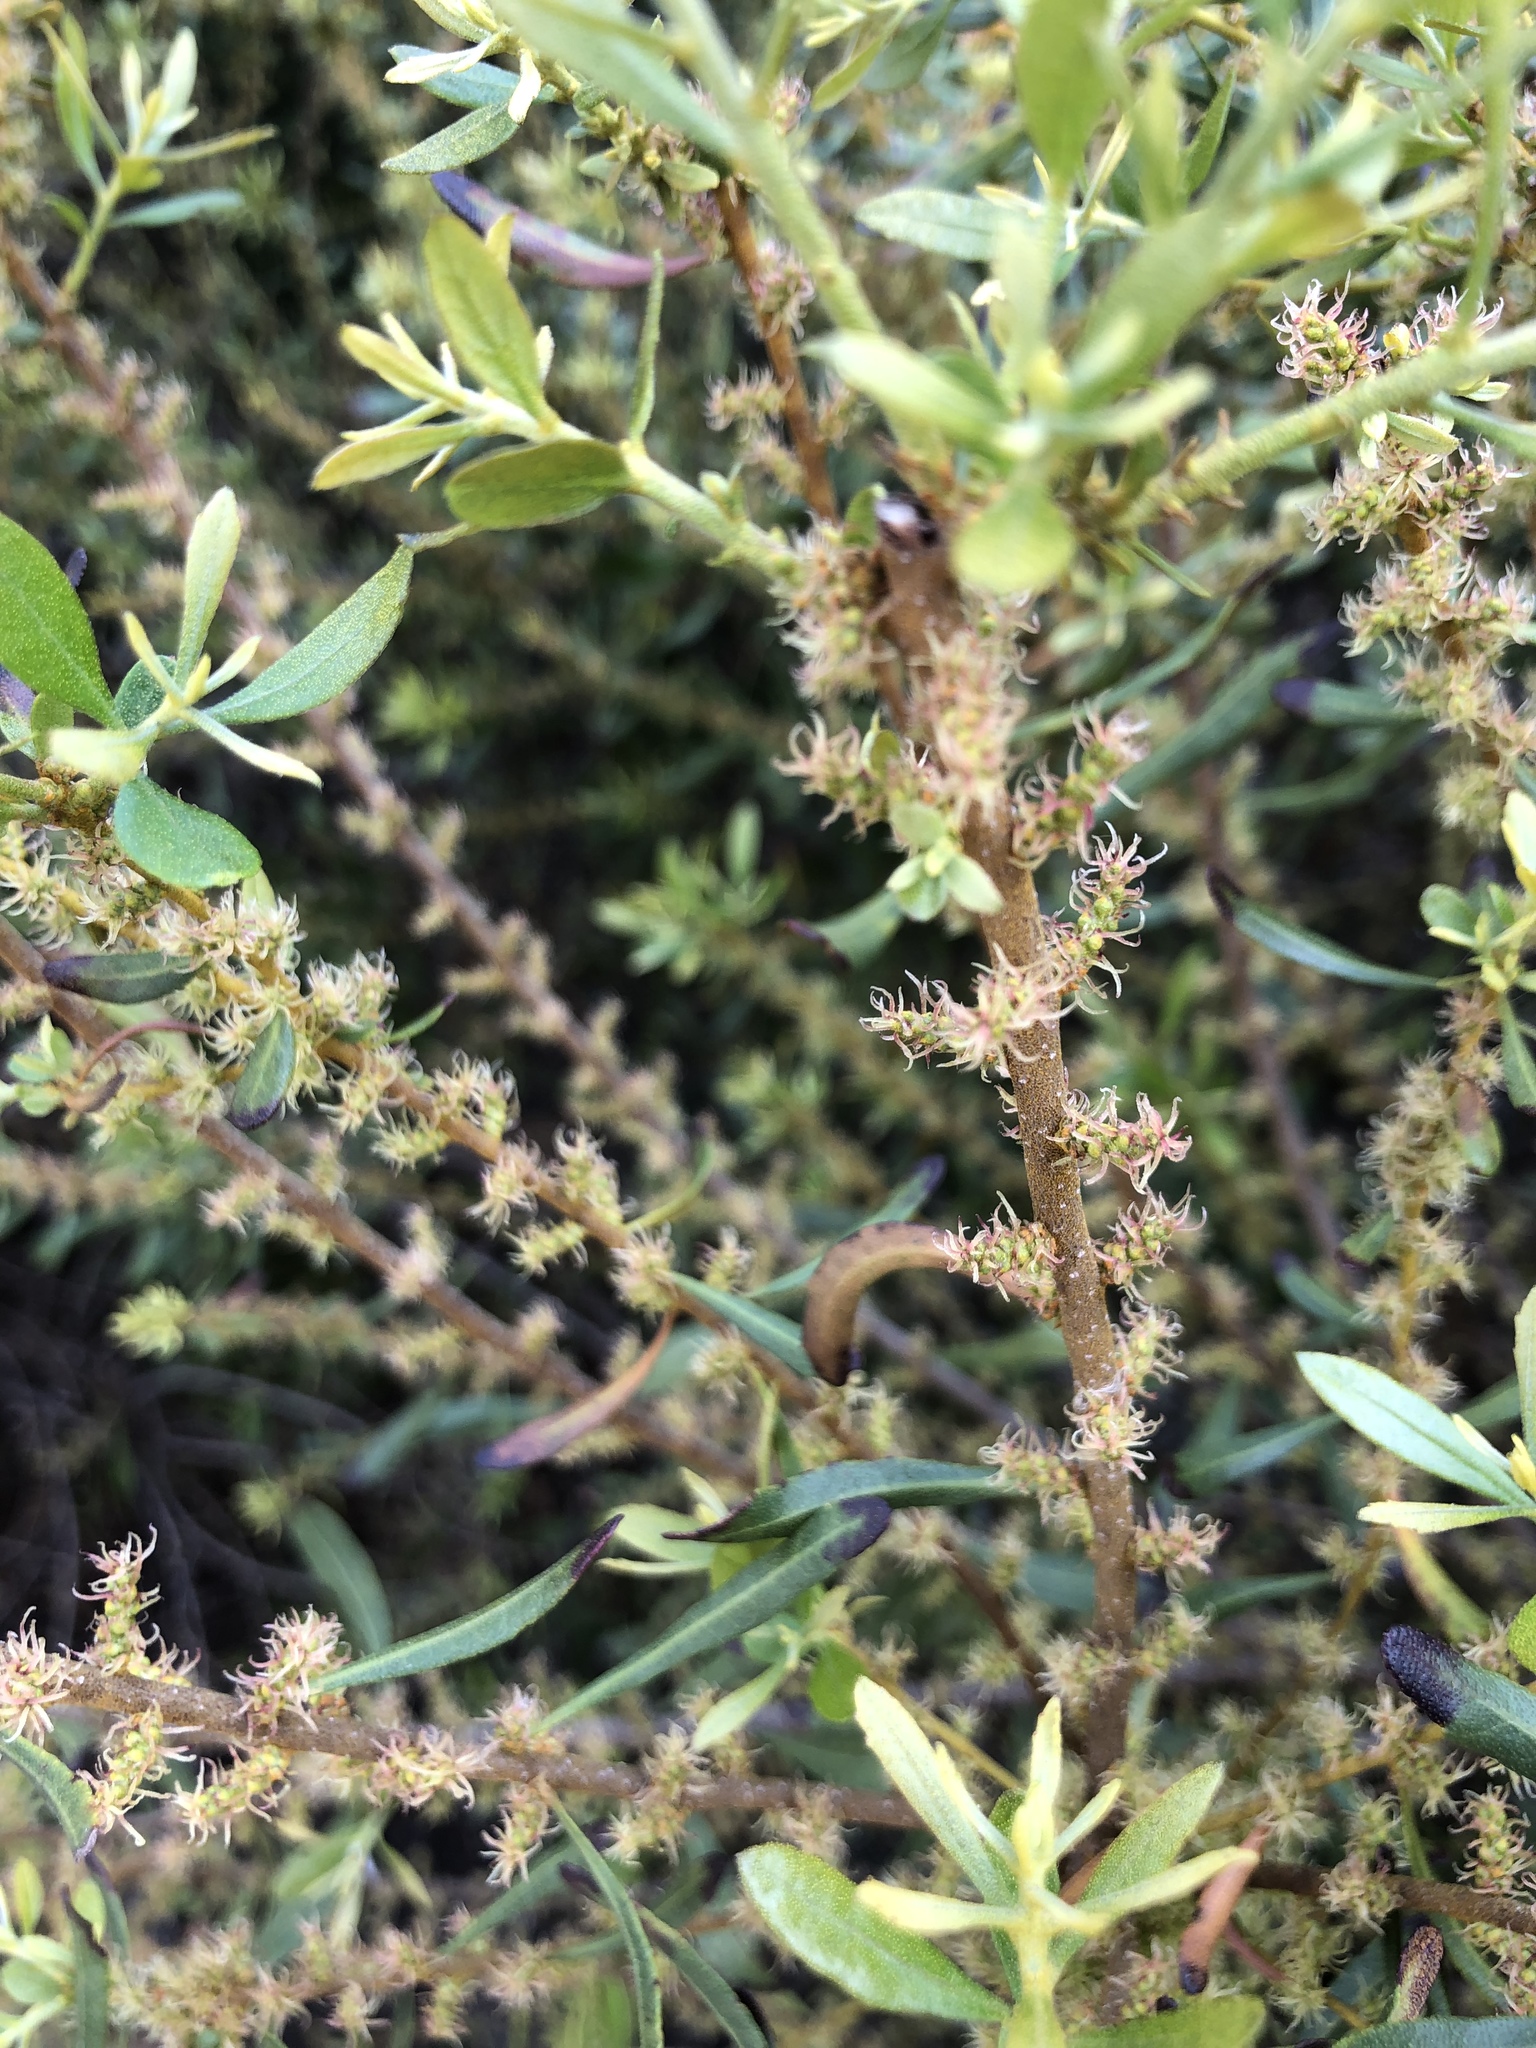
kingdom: Plantae
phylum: Tracheophyta
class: Magnoliopsida
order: Fagales
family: Myricaceae
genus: Morella
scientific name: Morella cerifera
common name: Wax myrtle
